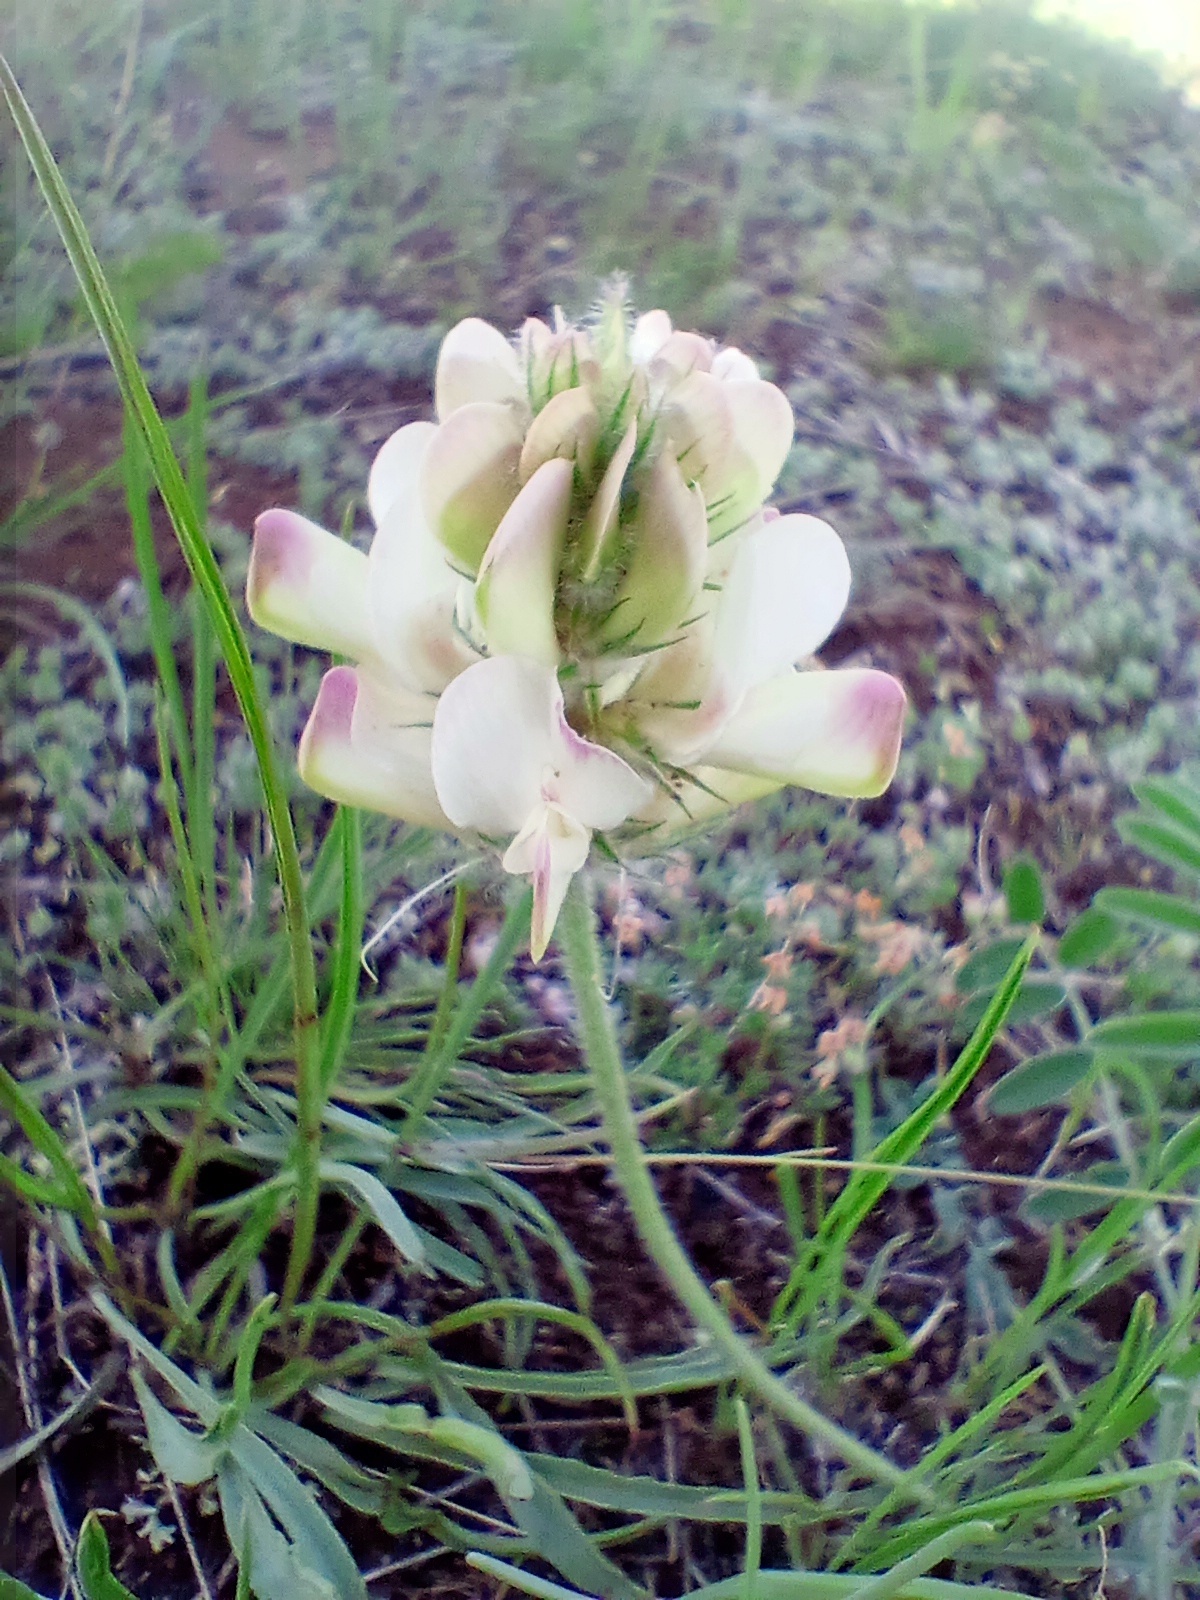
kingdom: Plantae
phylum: Tracheophyta
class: Magnoliopsida
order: Fabales
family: Fabaceae
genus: Hedysarum
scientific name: Hedysarum turczaninovii
